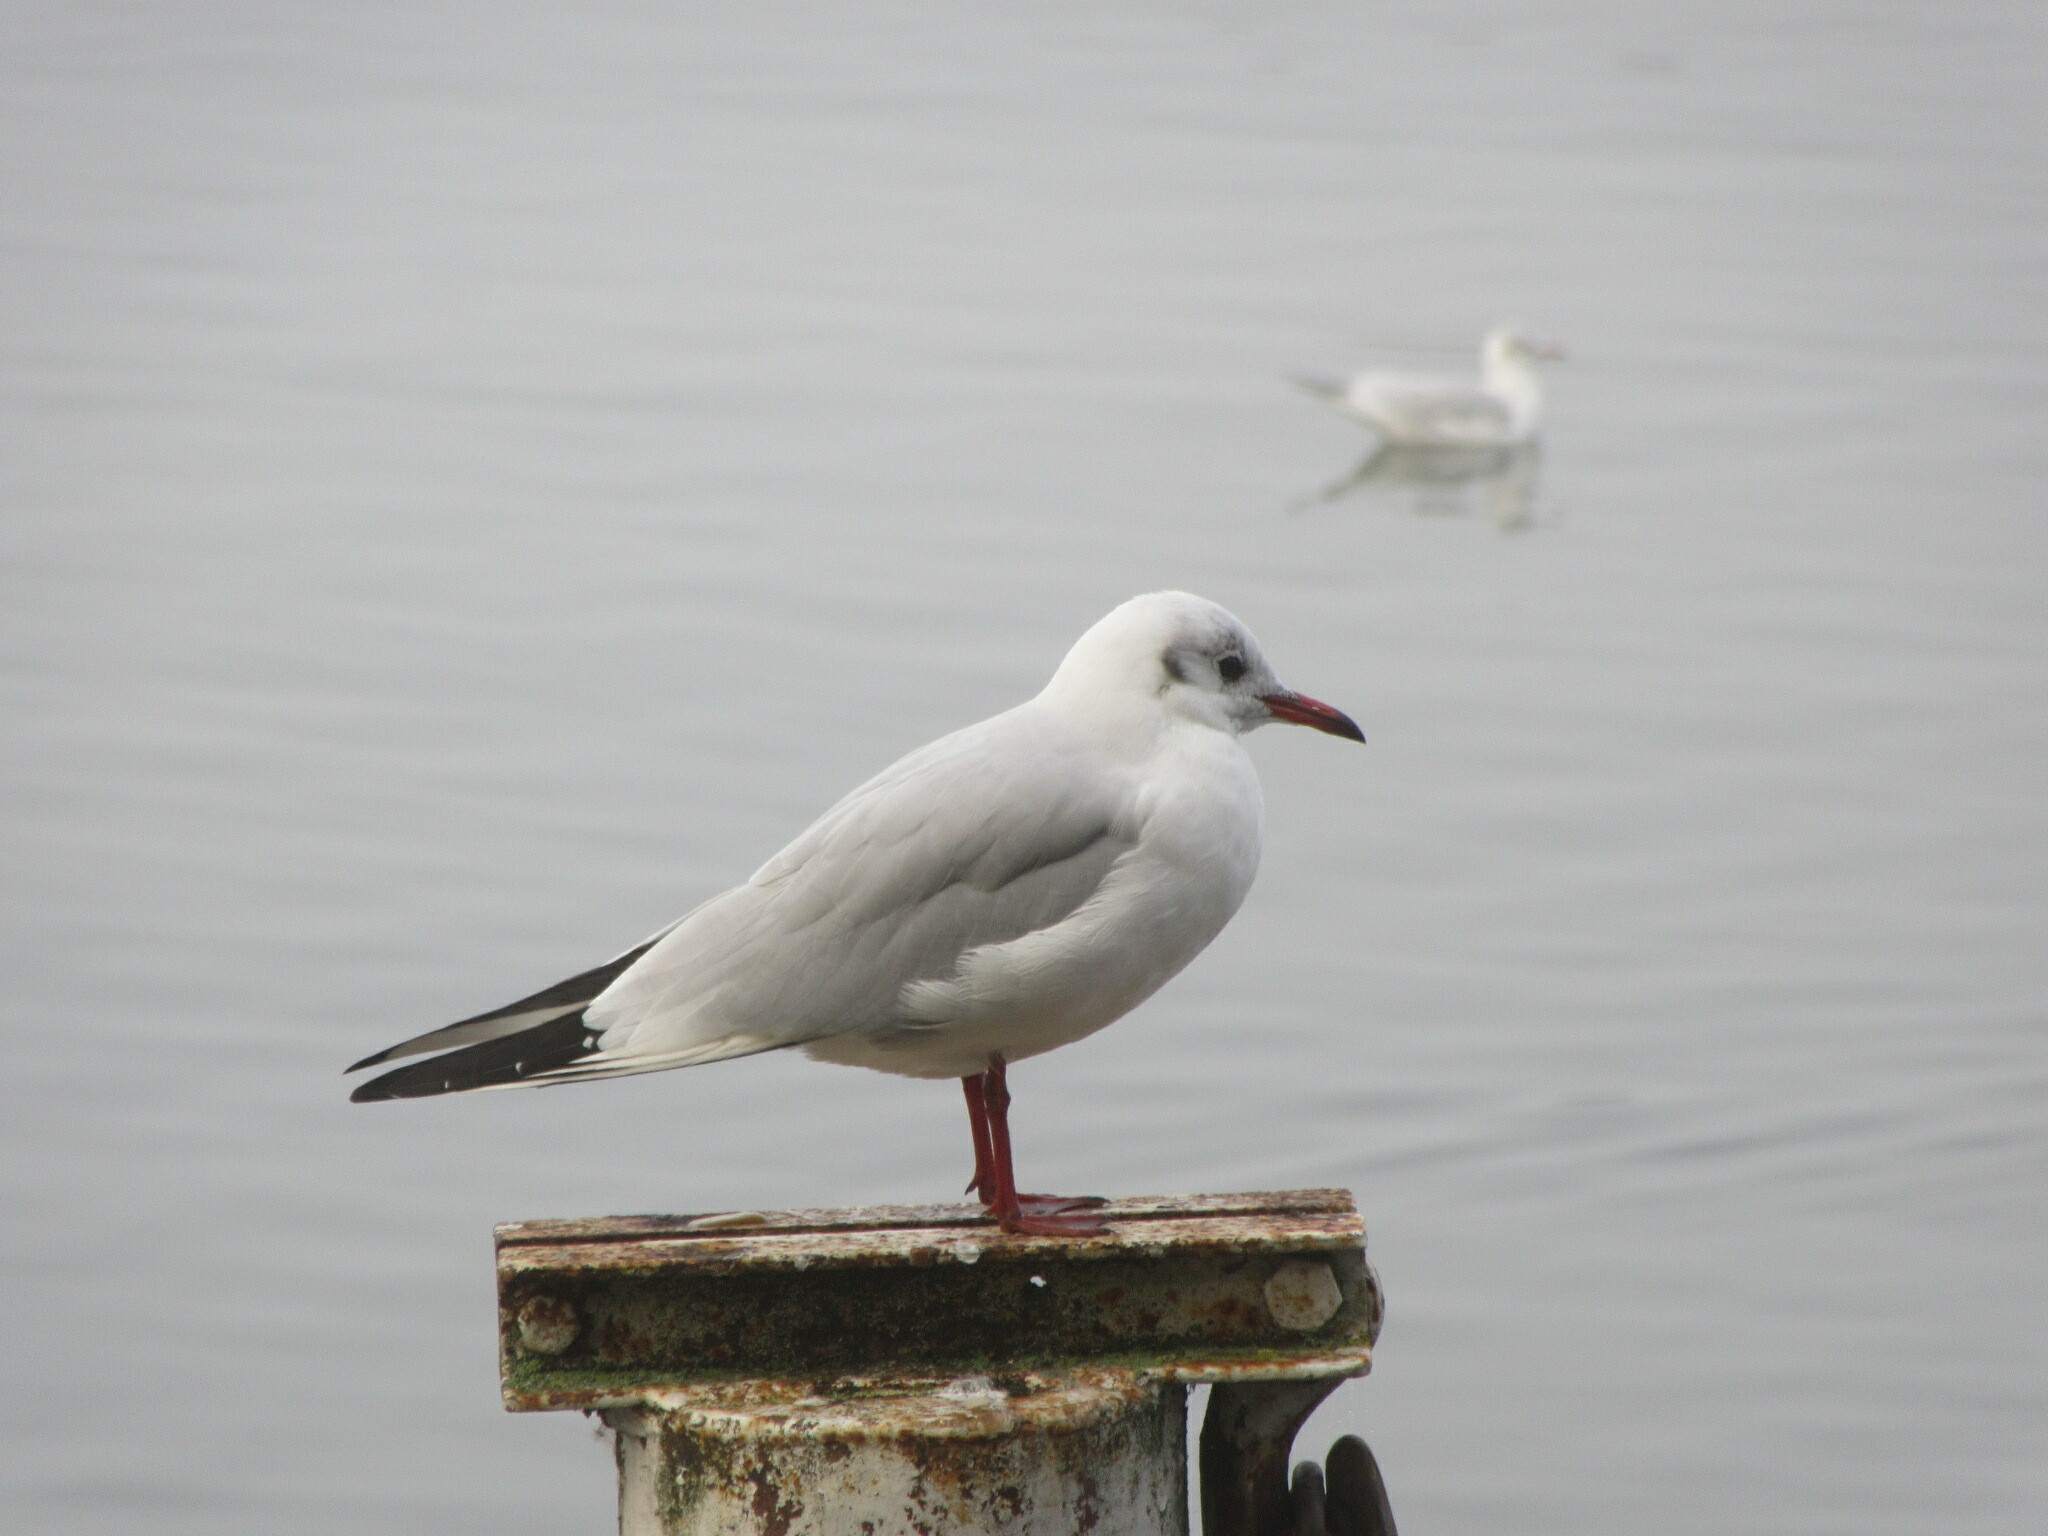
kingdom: Animalia
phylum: Chordata
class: Aves
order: Charadriiformes
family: Laridae
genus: Chroicocephalus
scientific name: Chroicocephalus ridibundus
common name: Black-headed gull
